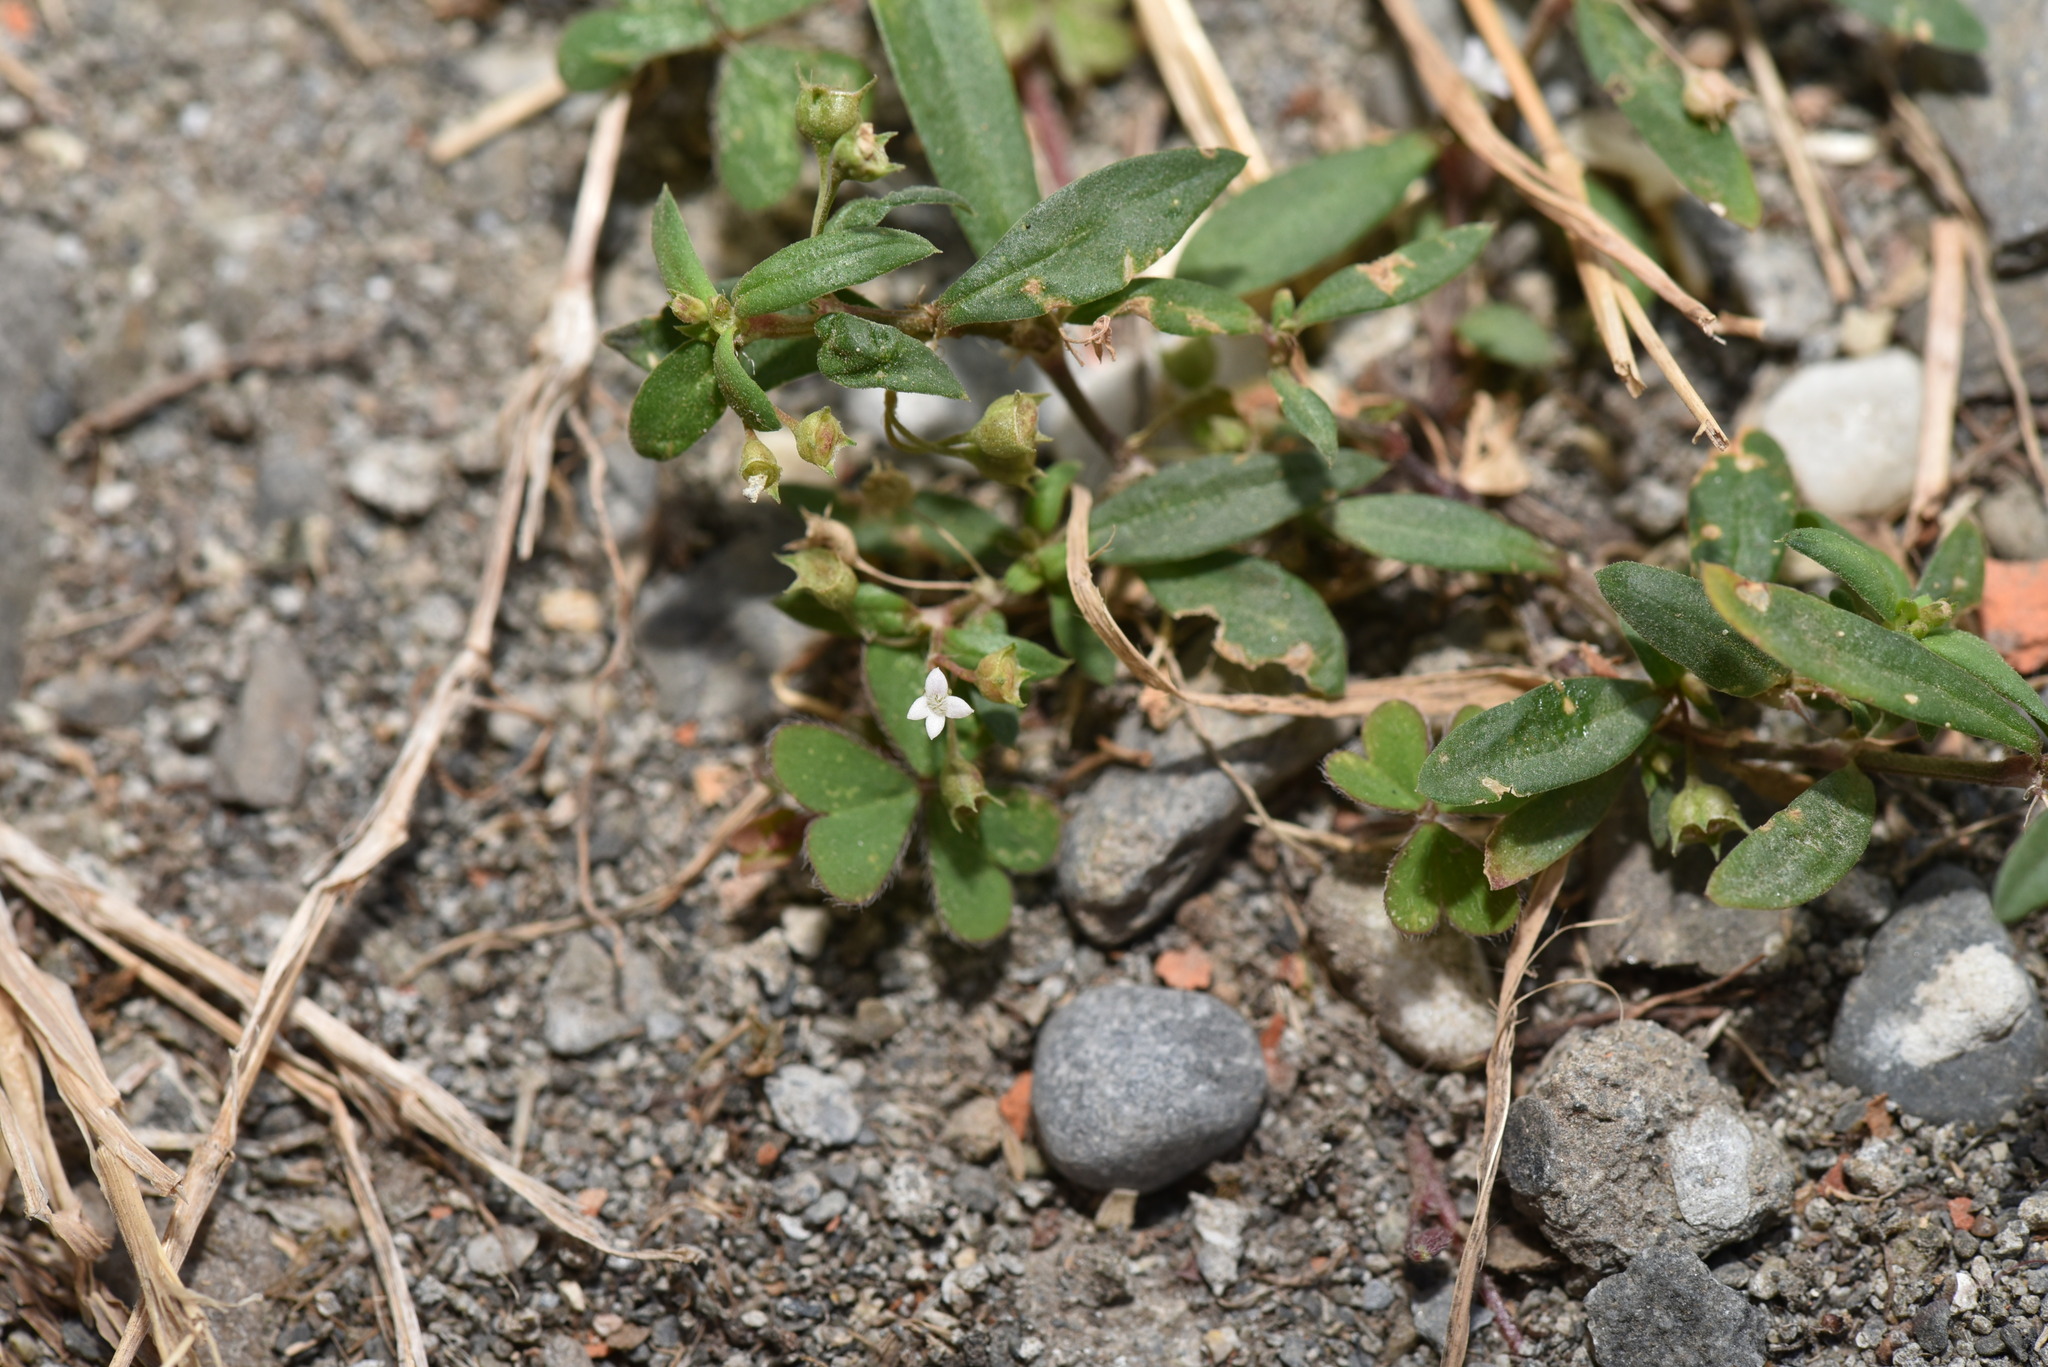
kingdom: Plantae
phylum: Tracheophyta
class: Magnoliopsida
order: Gentianales
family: Rubiaceae
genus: Oldenlandia
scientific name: Oldenlandia corymbosa
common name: Flat-top mille graines
